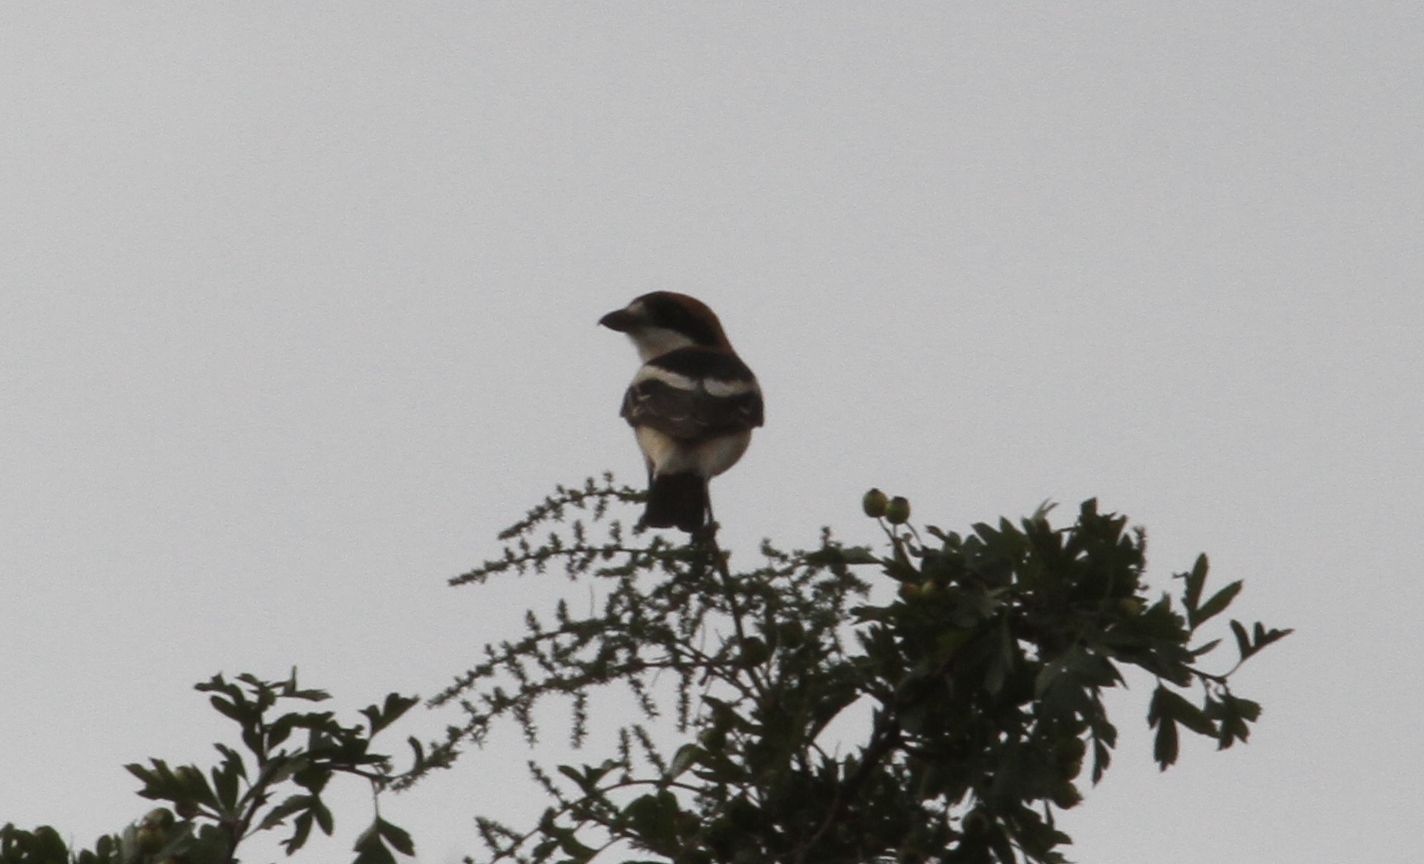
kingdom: Animalia
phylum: Chordata
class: Aves
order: Passeriformes
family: Laniidae
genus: Lanius
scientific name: Lanius senator
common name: Woodchat shrike
